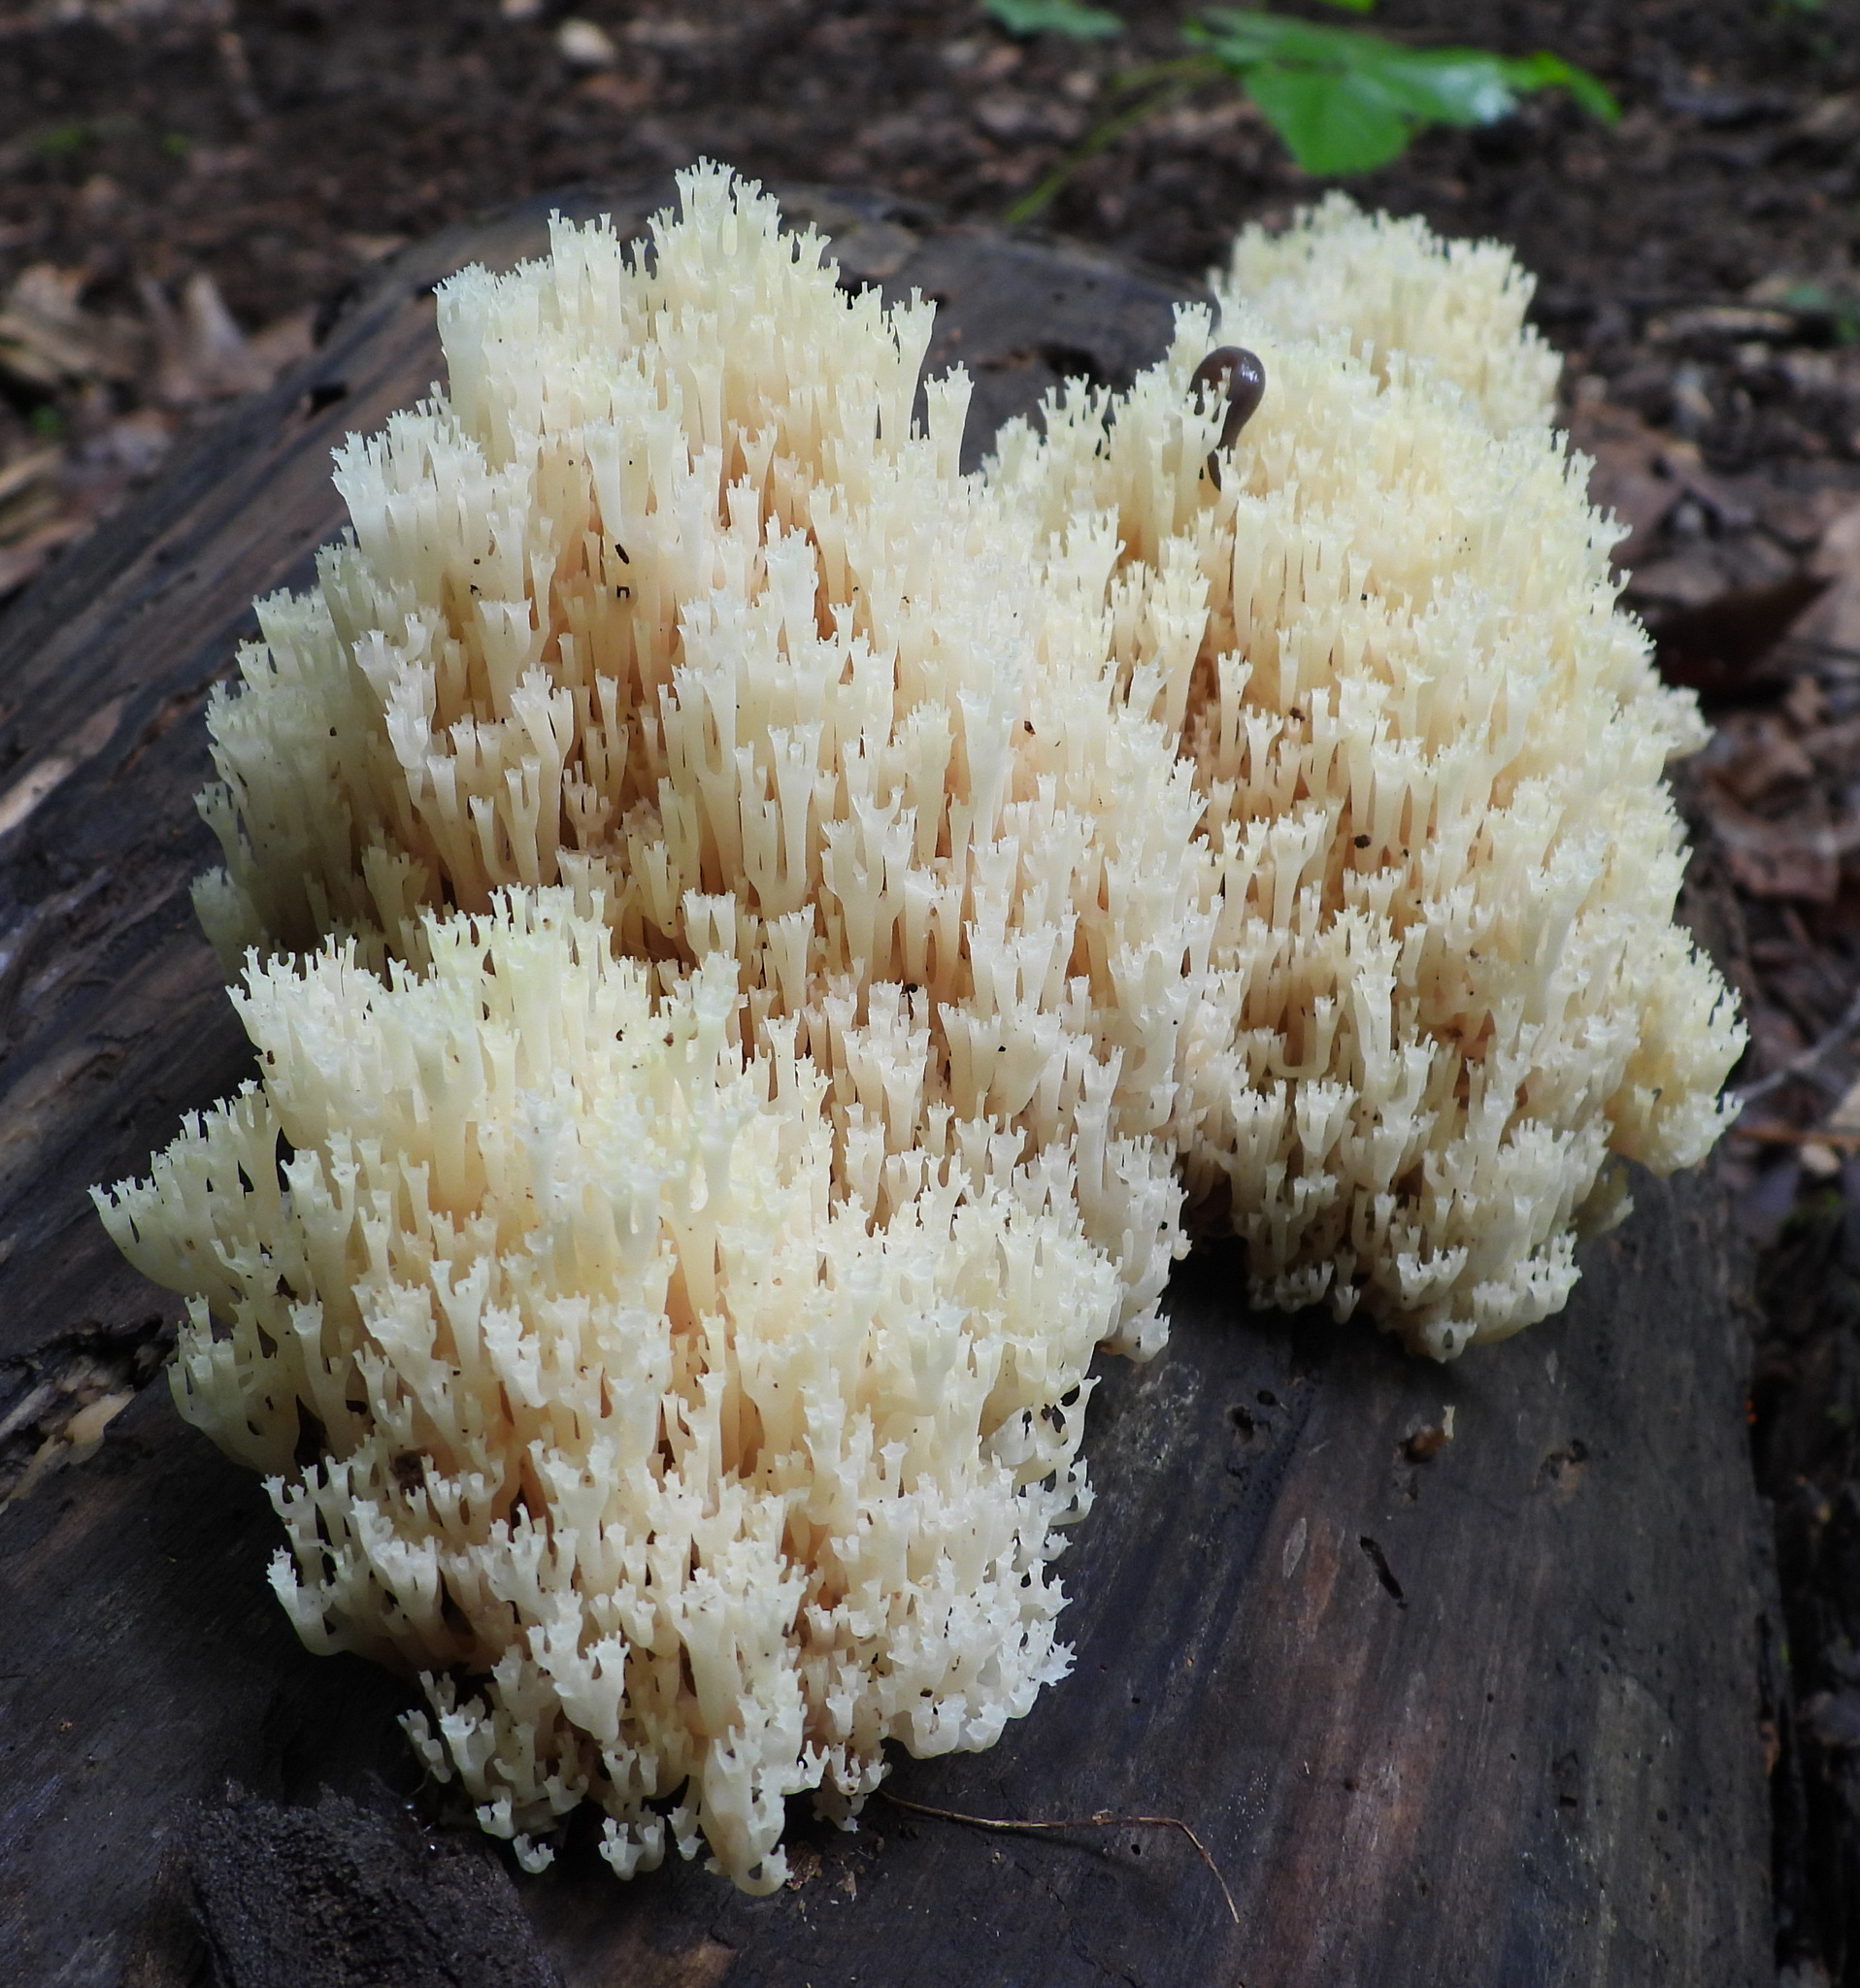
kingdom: Fungi
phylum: Basidiomycota
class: Agaricomycetes
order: Russulales
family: Auriscalpiaceae
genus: Artomyces
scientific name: Artomyces pyxidatus
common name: Crown-tipped coral fungus
